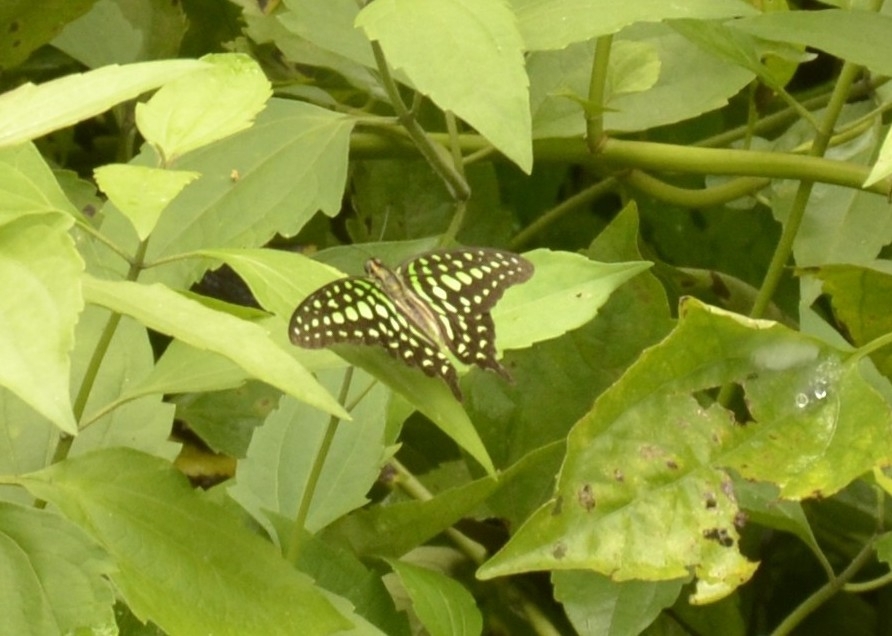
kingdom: Animalia
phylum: Arthropoda
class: Insecta
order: Lepidoptera
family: Papilionidae
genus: Graphium
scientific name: Graphium agamemnon
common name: Tailed jay
